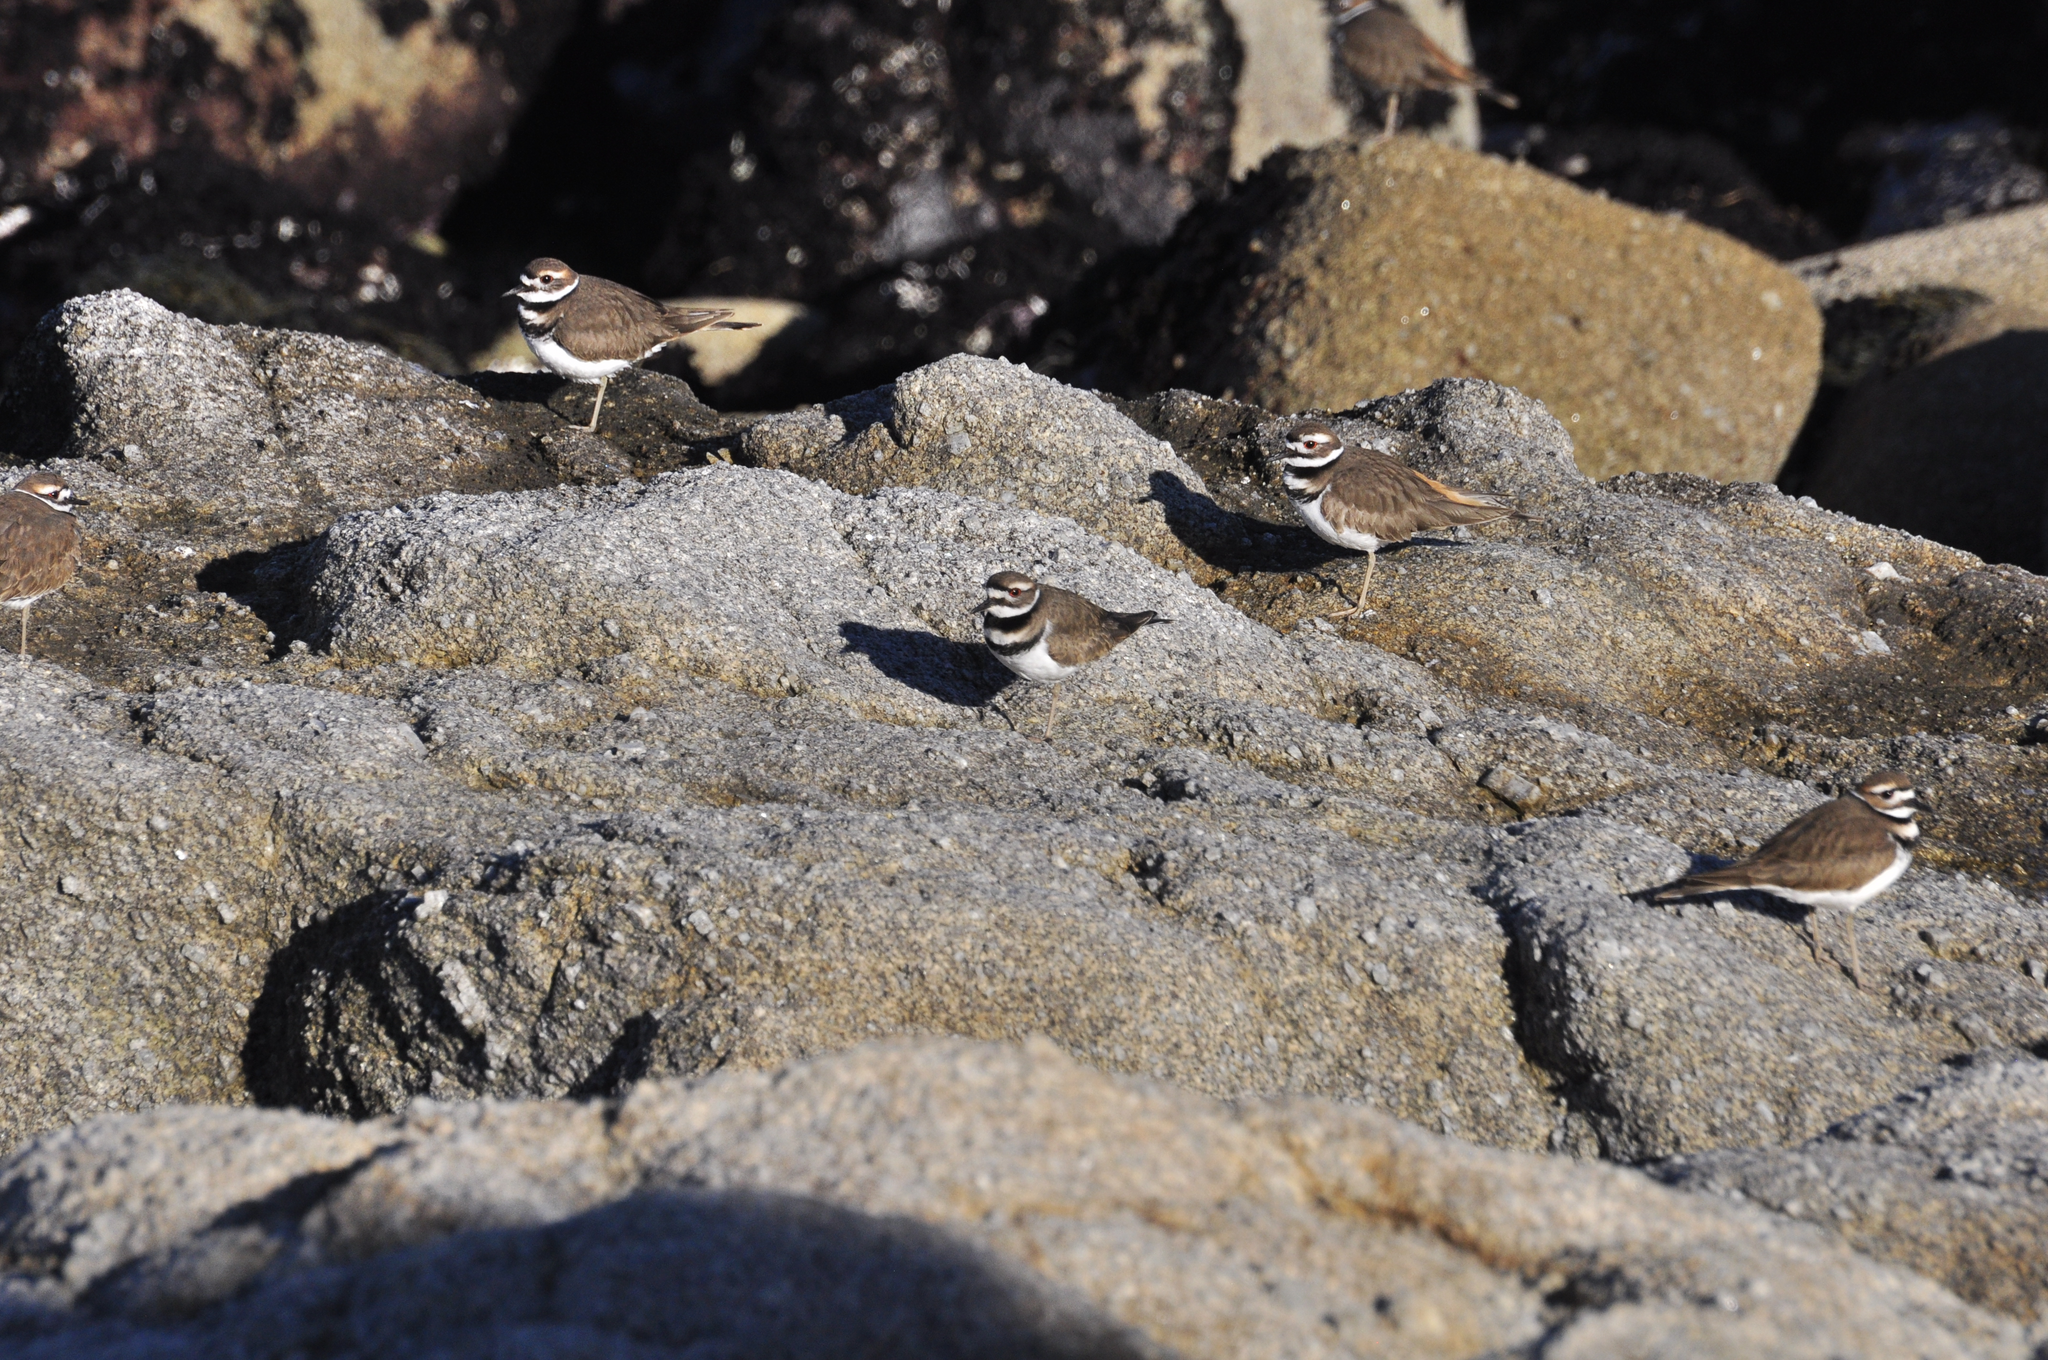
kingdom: Animalia
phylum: Chordata
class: Aves
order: Charadriiformes
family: Charadriidae
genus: Charadrius
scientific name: Charadrius vociferus
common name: Killdeer
